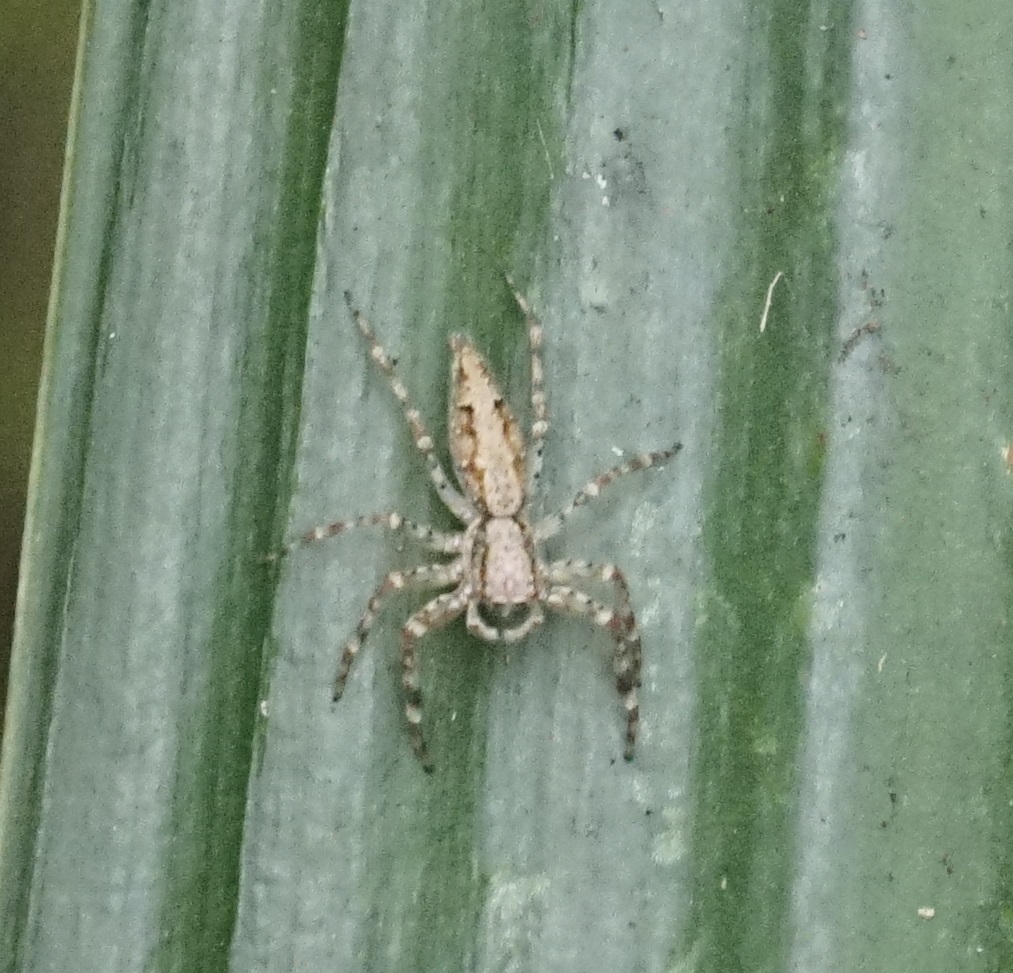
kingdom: Animalia
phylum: Arthropoda
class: Arachnida
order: Araneae
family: Salticidae
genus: Helpis
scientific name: Helpis minitabunda
